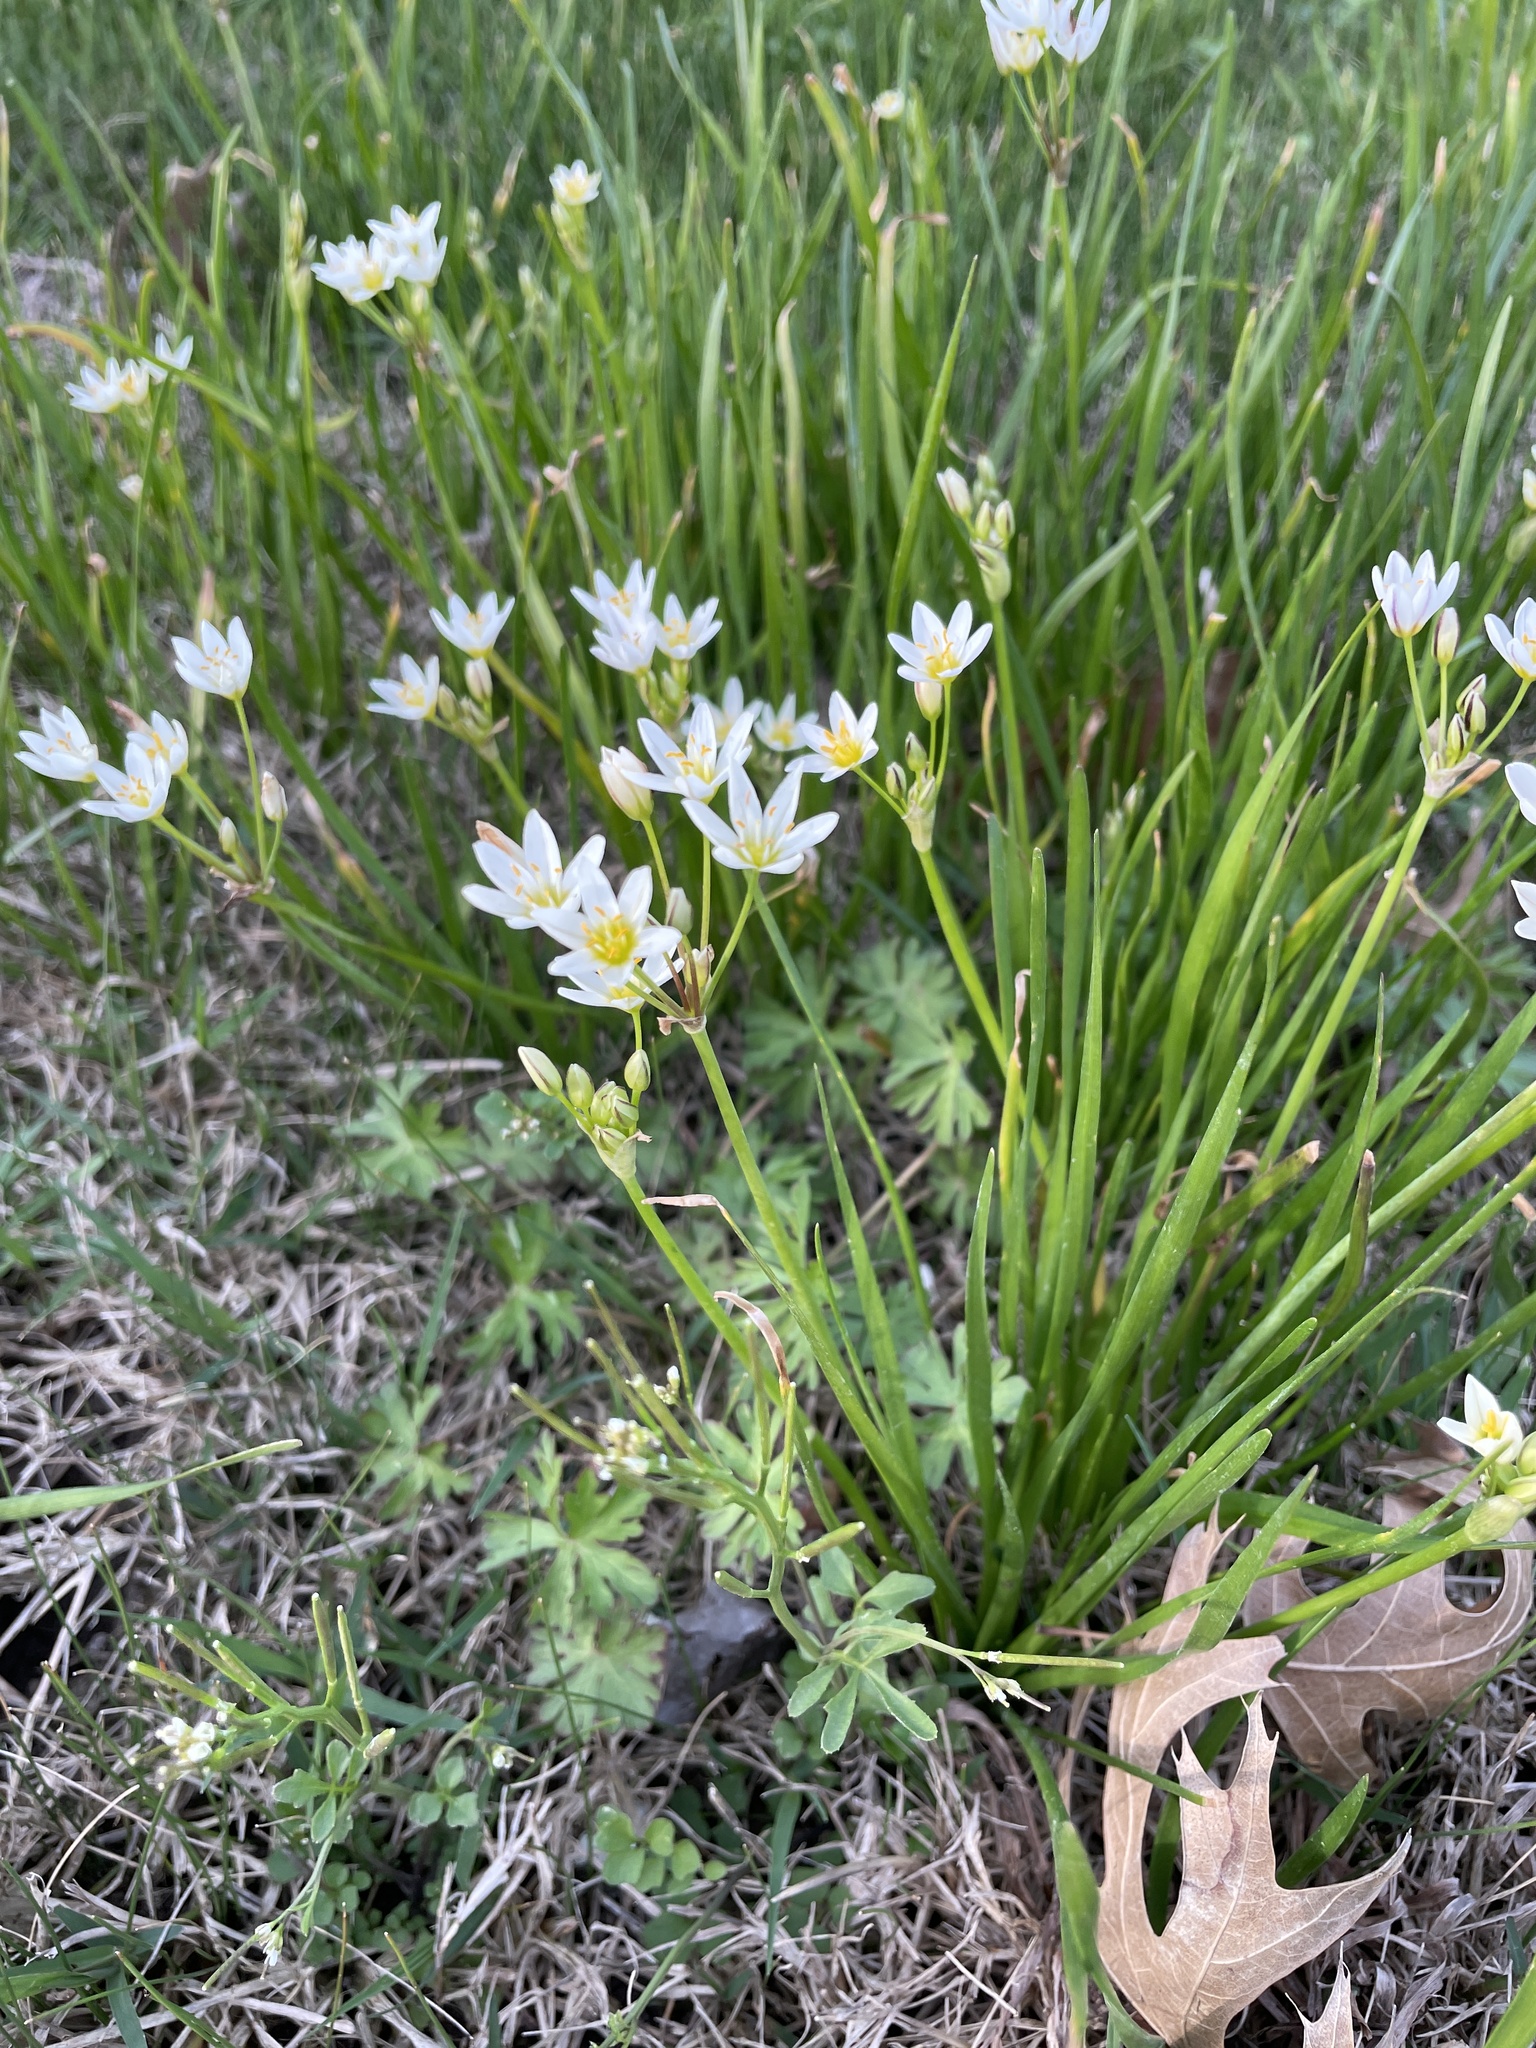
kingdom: Plantae
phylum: Tracheophyta
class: Liliopsida
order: Asparagales
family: Amaryllidaceae
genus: Nothoscordum
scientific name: Nothoscordum bivalve
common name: Crow-poison
